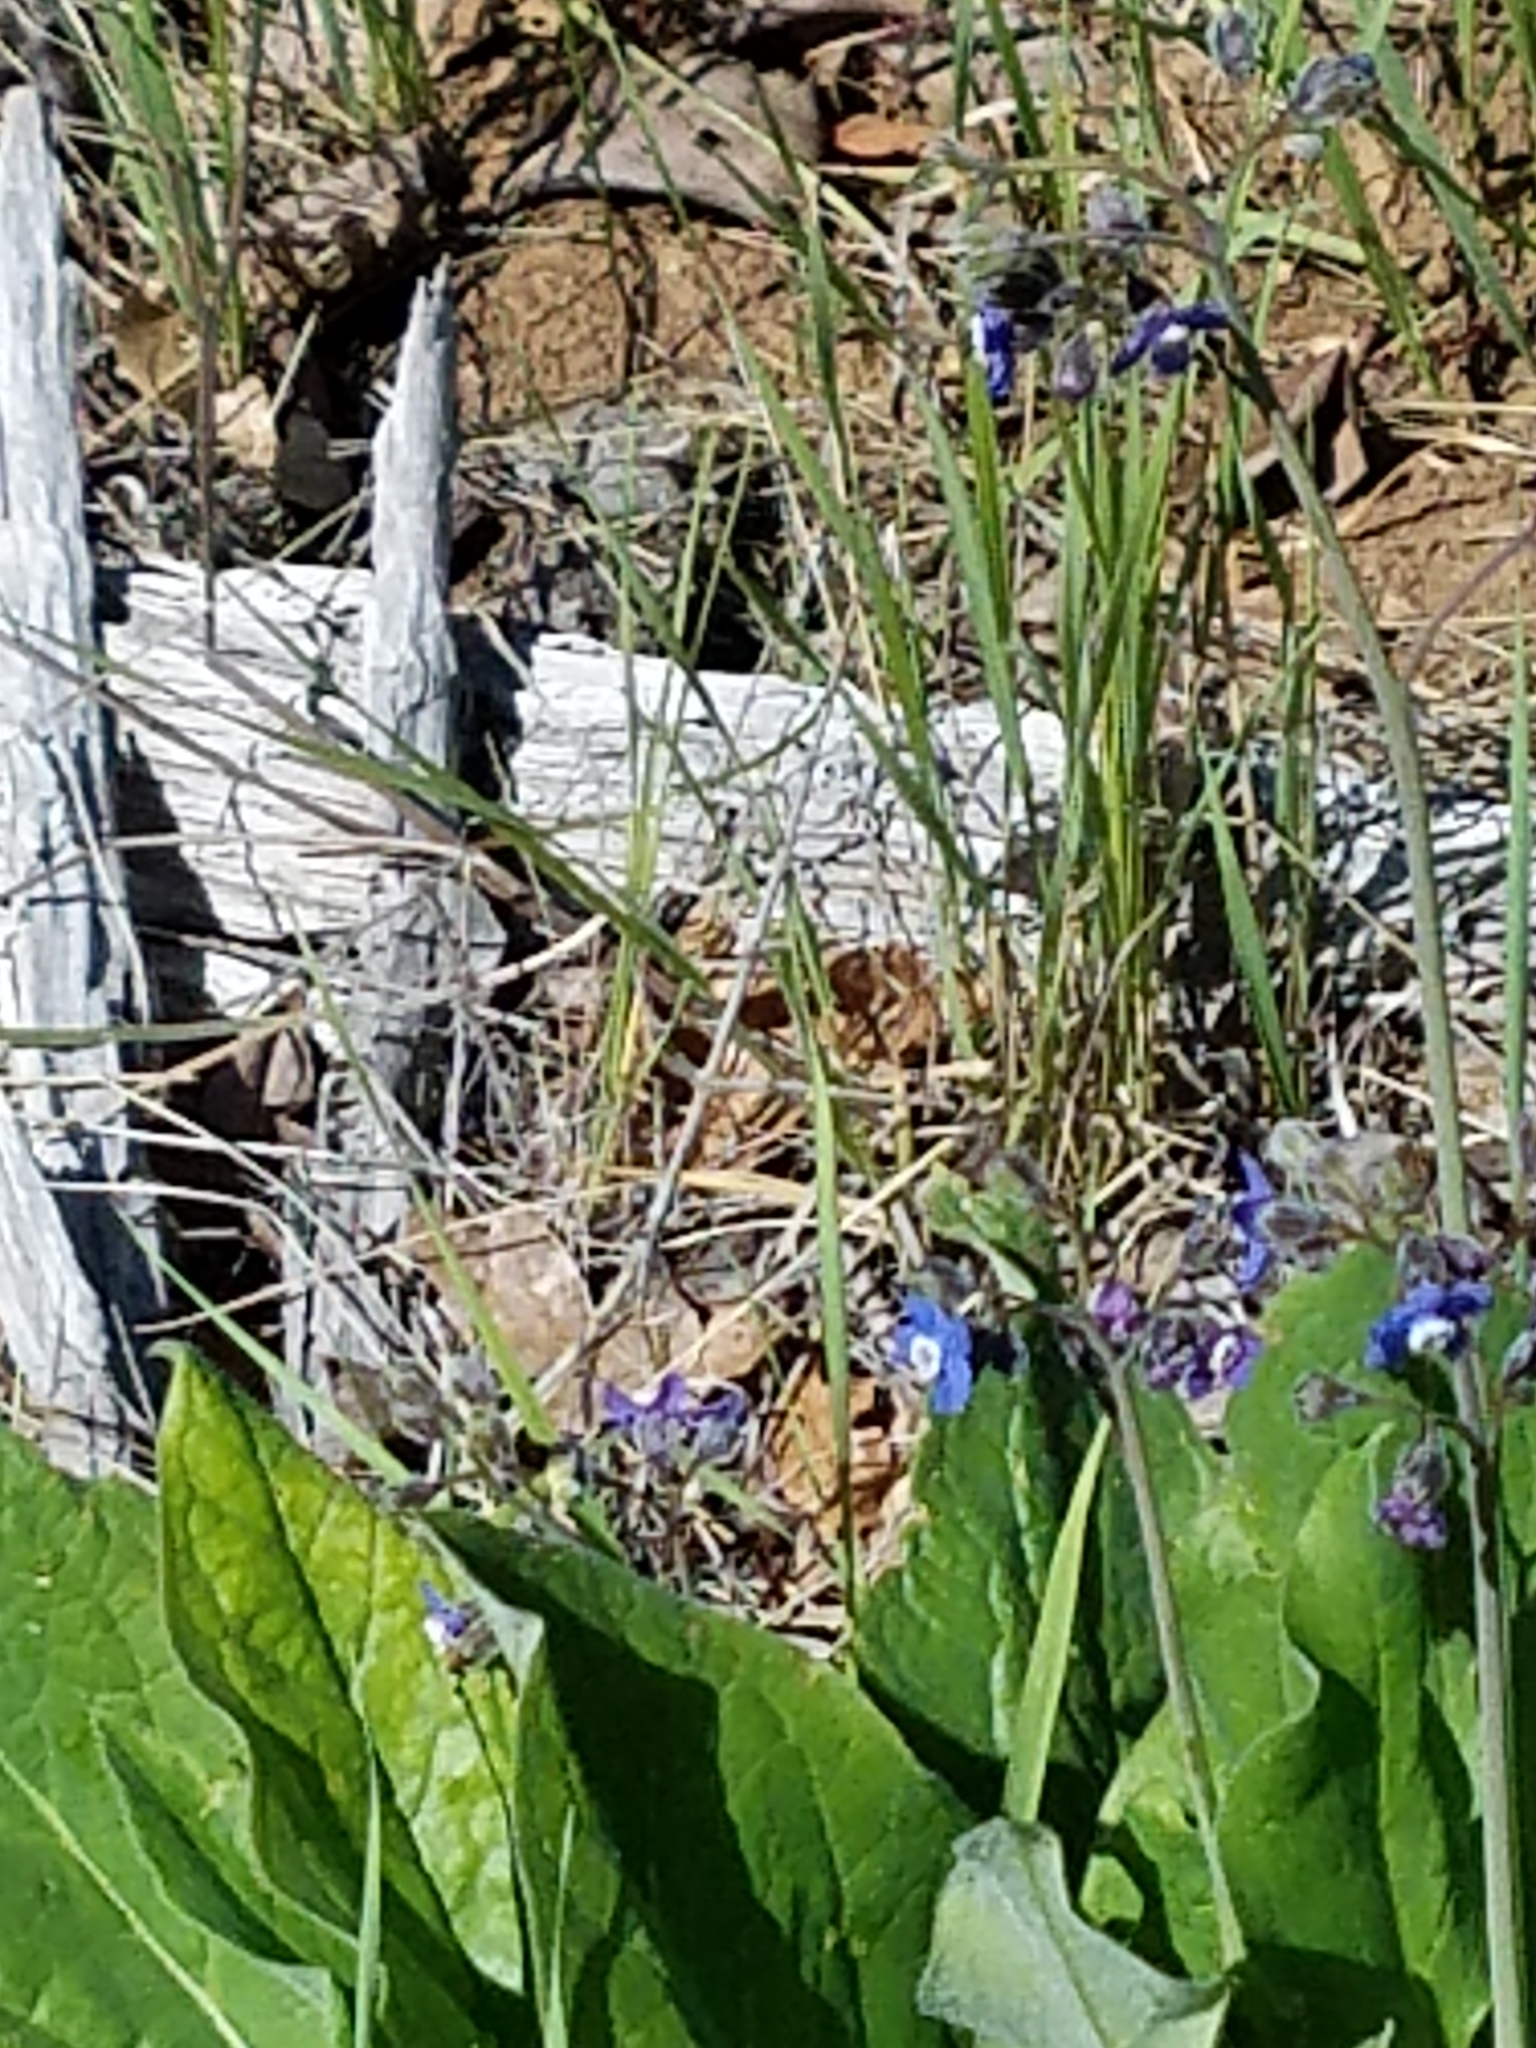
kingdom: Plantae
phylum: Tracheophyta
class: Magnoliopsida
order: Boraginales
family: Boraginaceae
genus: Adelinia
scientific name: Adelinia grande
